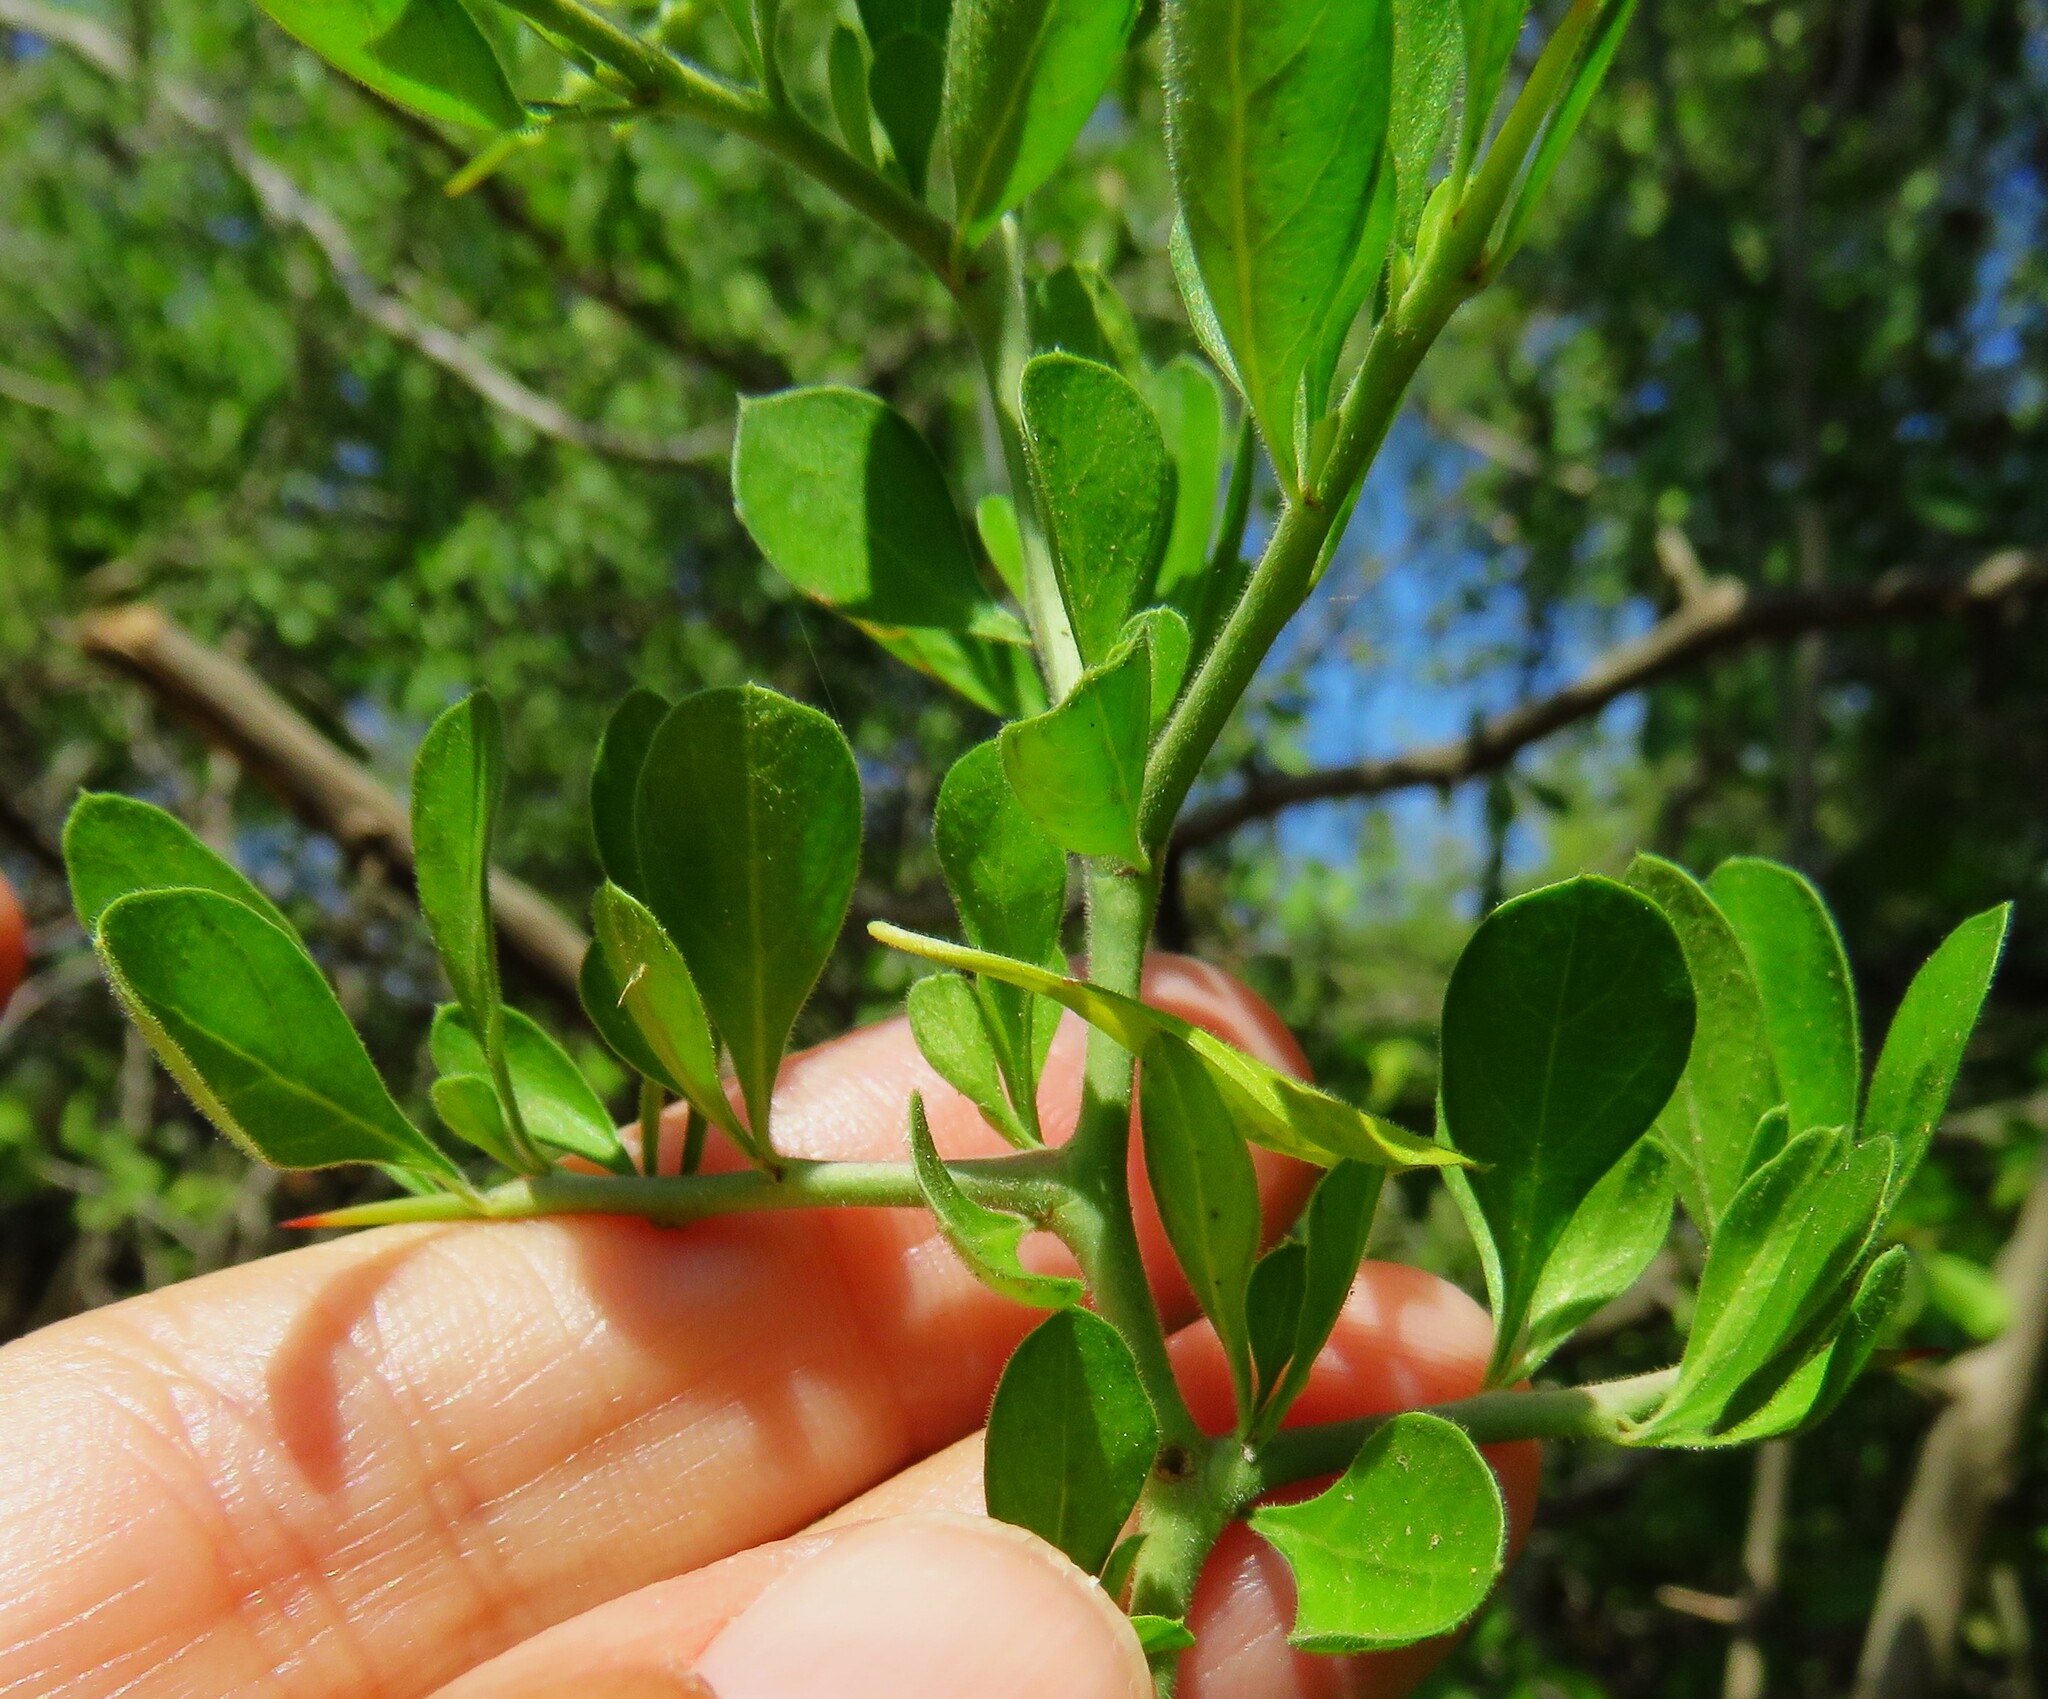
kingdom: Plantae
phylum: Tracheophyta
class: Magnoliopsida
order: Rosales
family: Rhamnaceae
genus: Condalia
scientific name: Condalia hookeri
